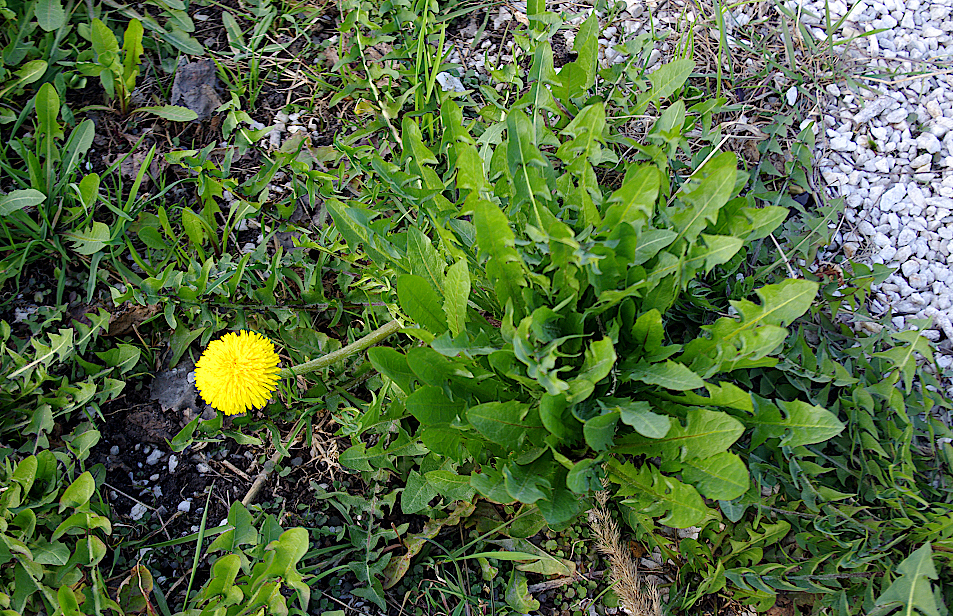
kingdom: Plantae
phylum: Tracheophyta
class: Magnoliopsida
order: Asterales
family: Asteraceae
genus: Taraxacum
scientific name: Taraxacum officinale
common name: Common dandelion
